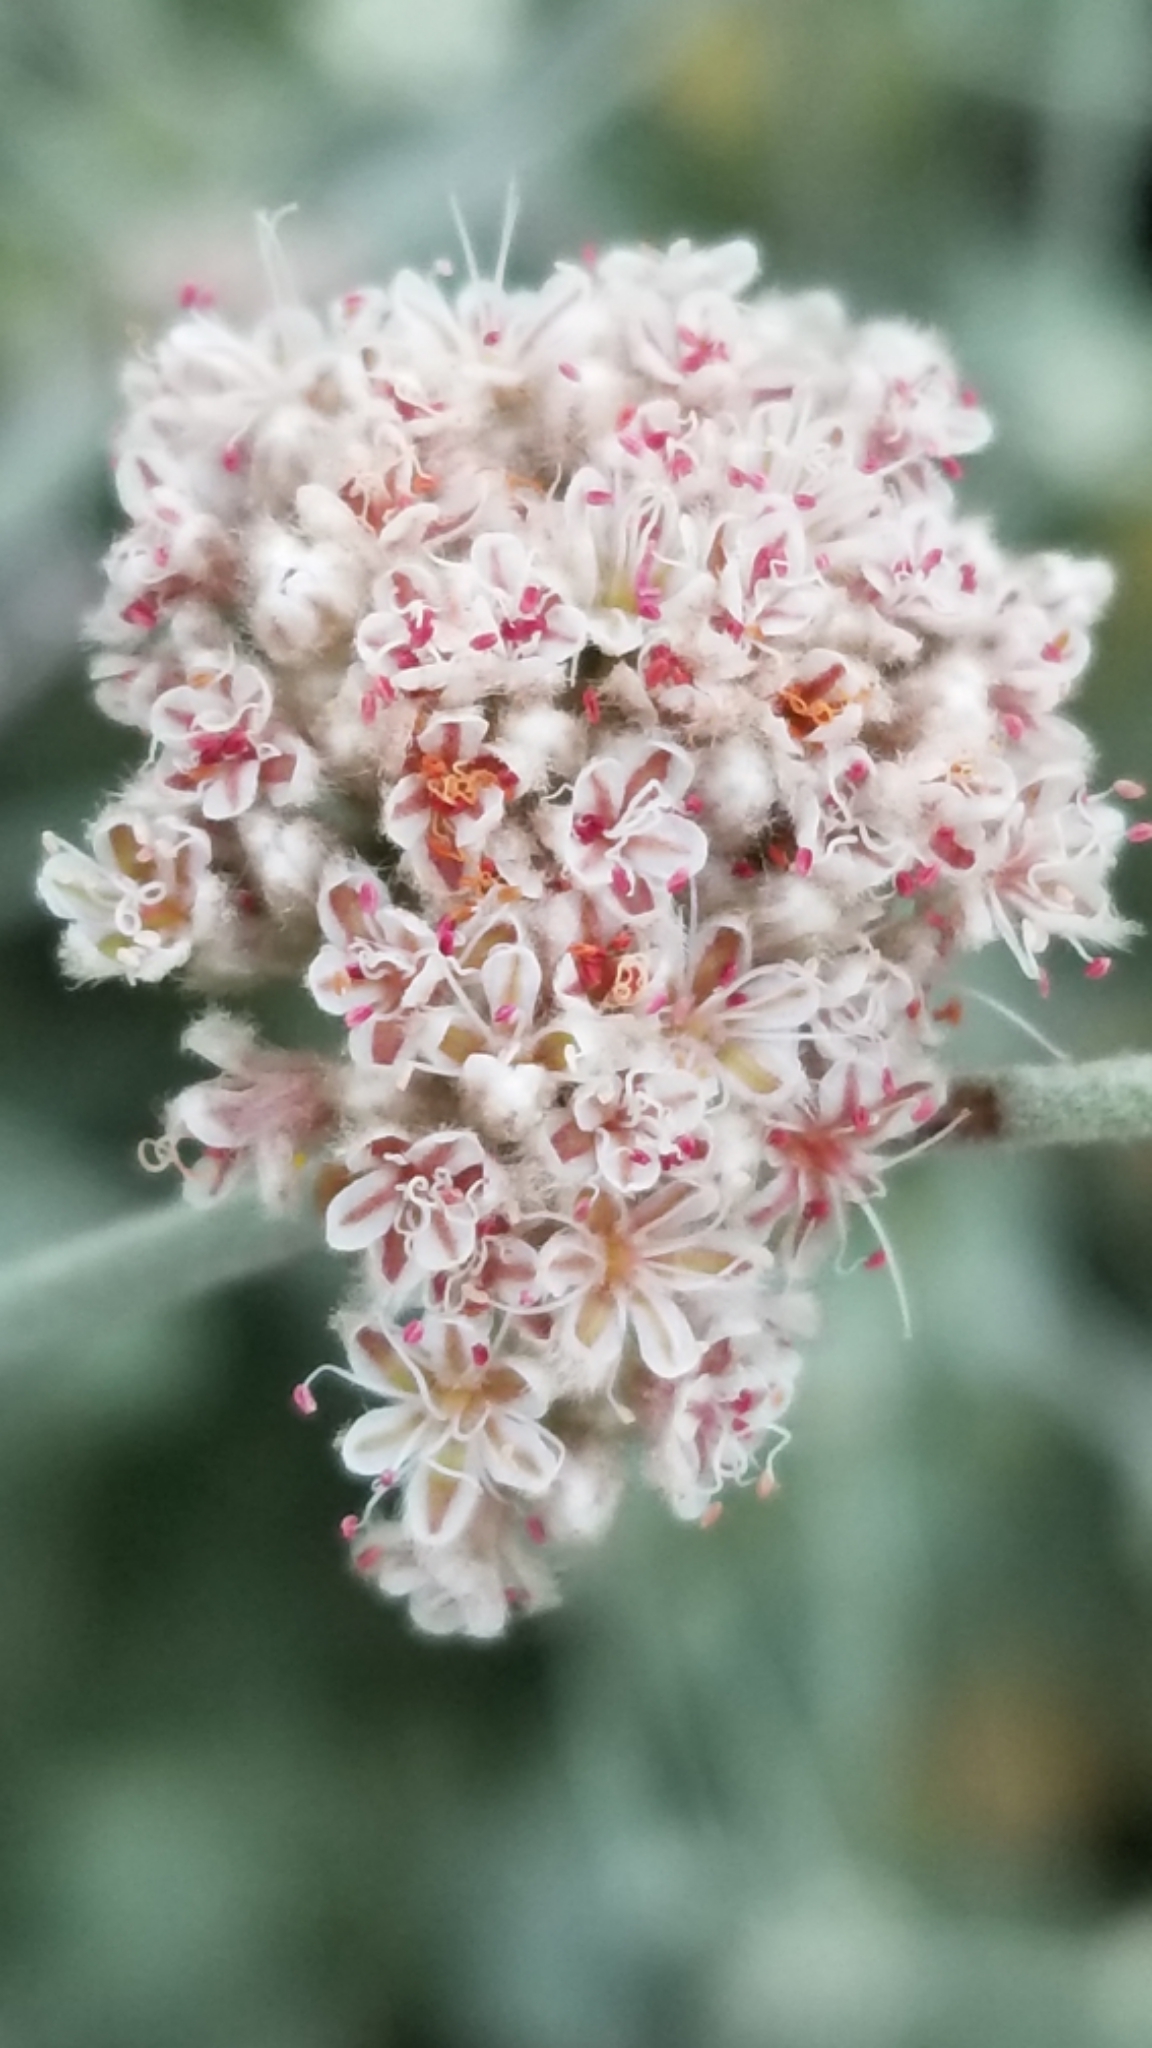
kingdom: Plantae
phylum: Tracheophyta
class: Magnoliopsida
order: Caryophyllales
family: Polygonaceae
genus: Eriogonum
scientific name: Eriogonum cinereum
